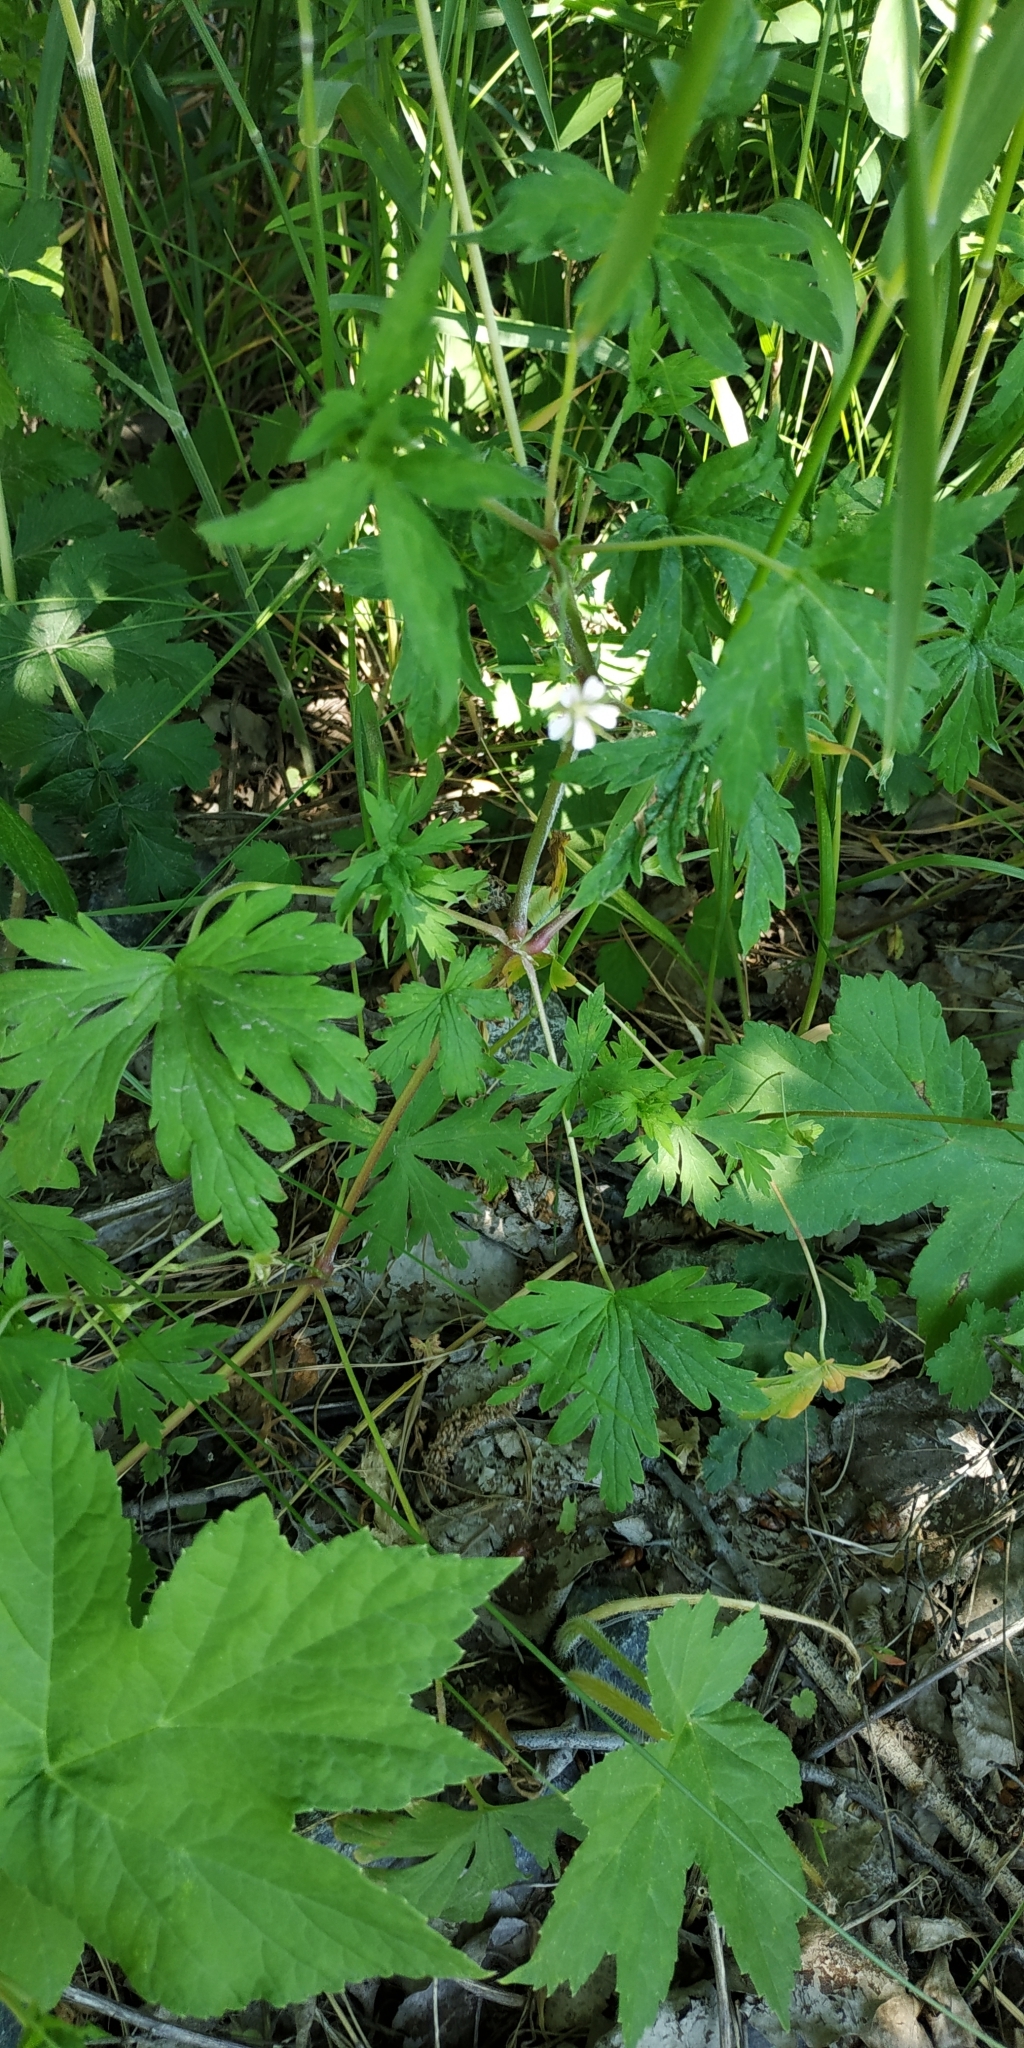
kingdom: Plantae
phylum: Tracheophyta
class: Magnoliopsida
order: Geraniales
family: Geraniaceae
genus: Geranium
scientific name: Geranium sibiricum
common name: Siberian crane's-bill
